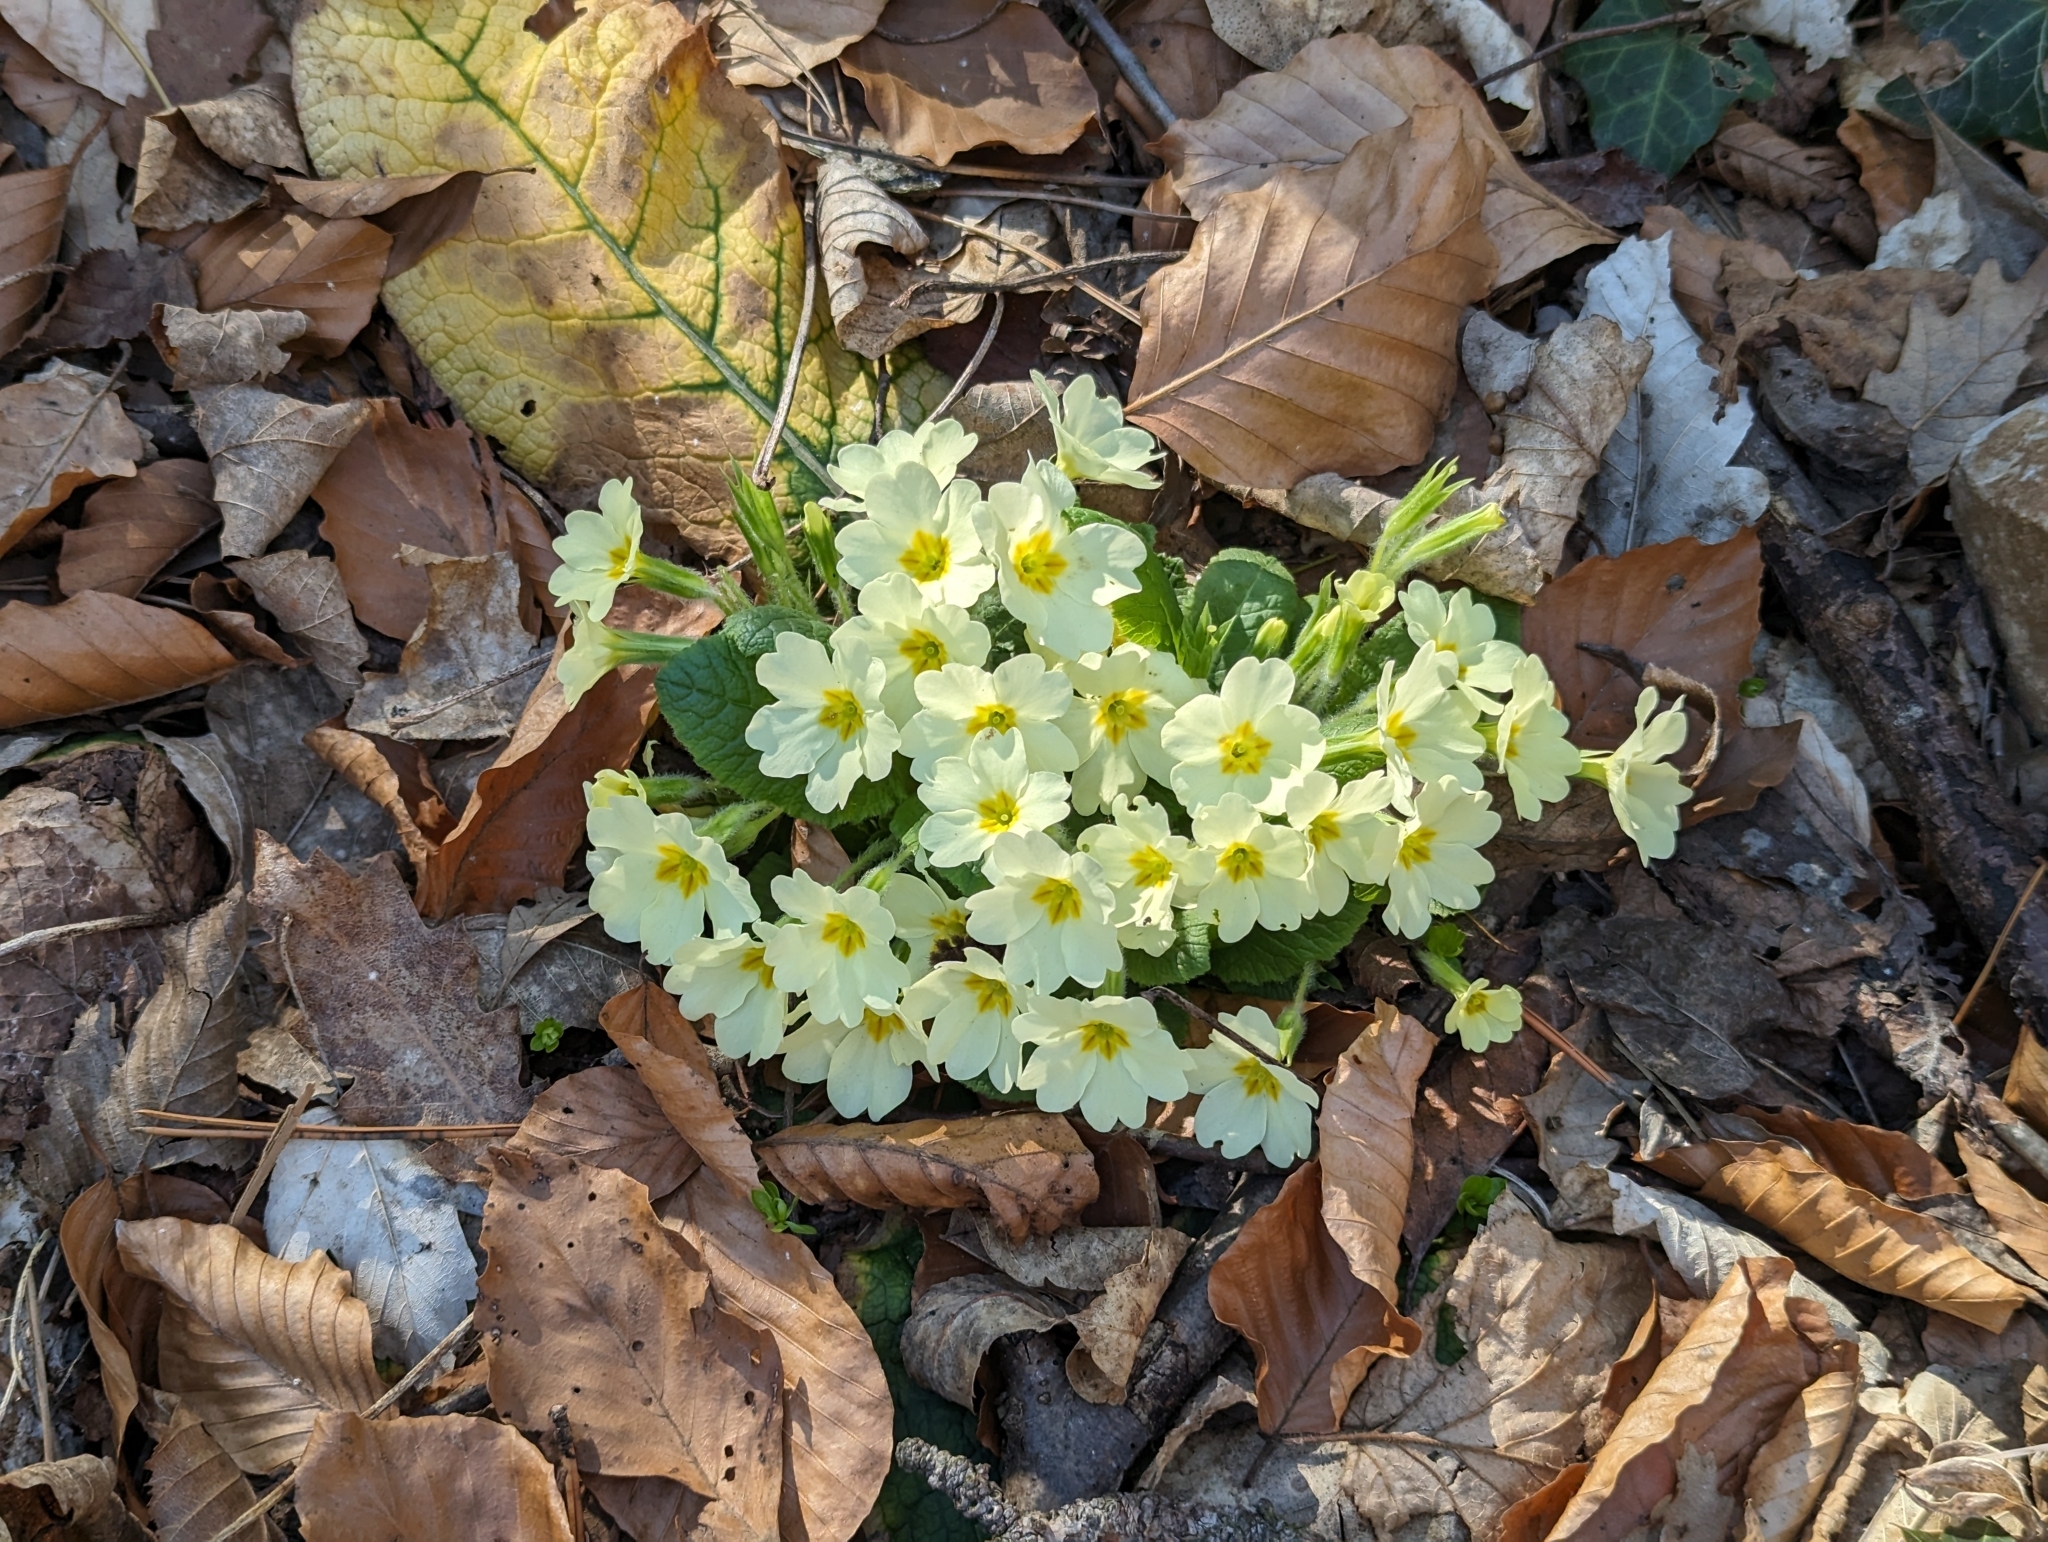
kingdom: Plantae
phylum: Tracheophyta
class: Magnoliopsida
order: Ericales
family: Primulaceae
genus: Primula
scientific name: Primula vulgaris
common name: Primrose
